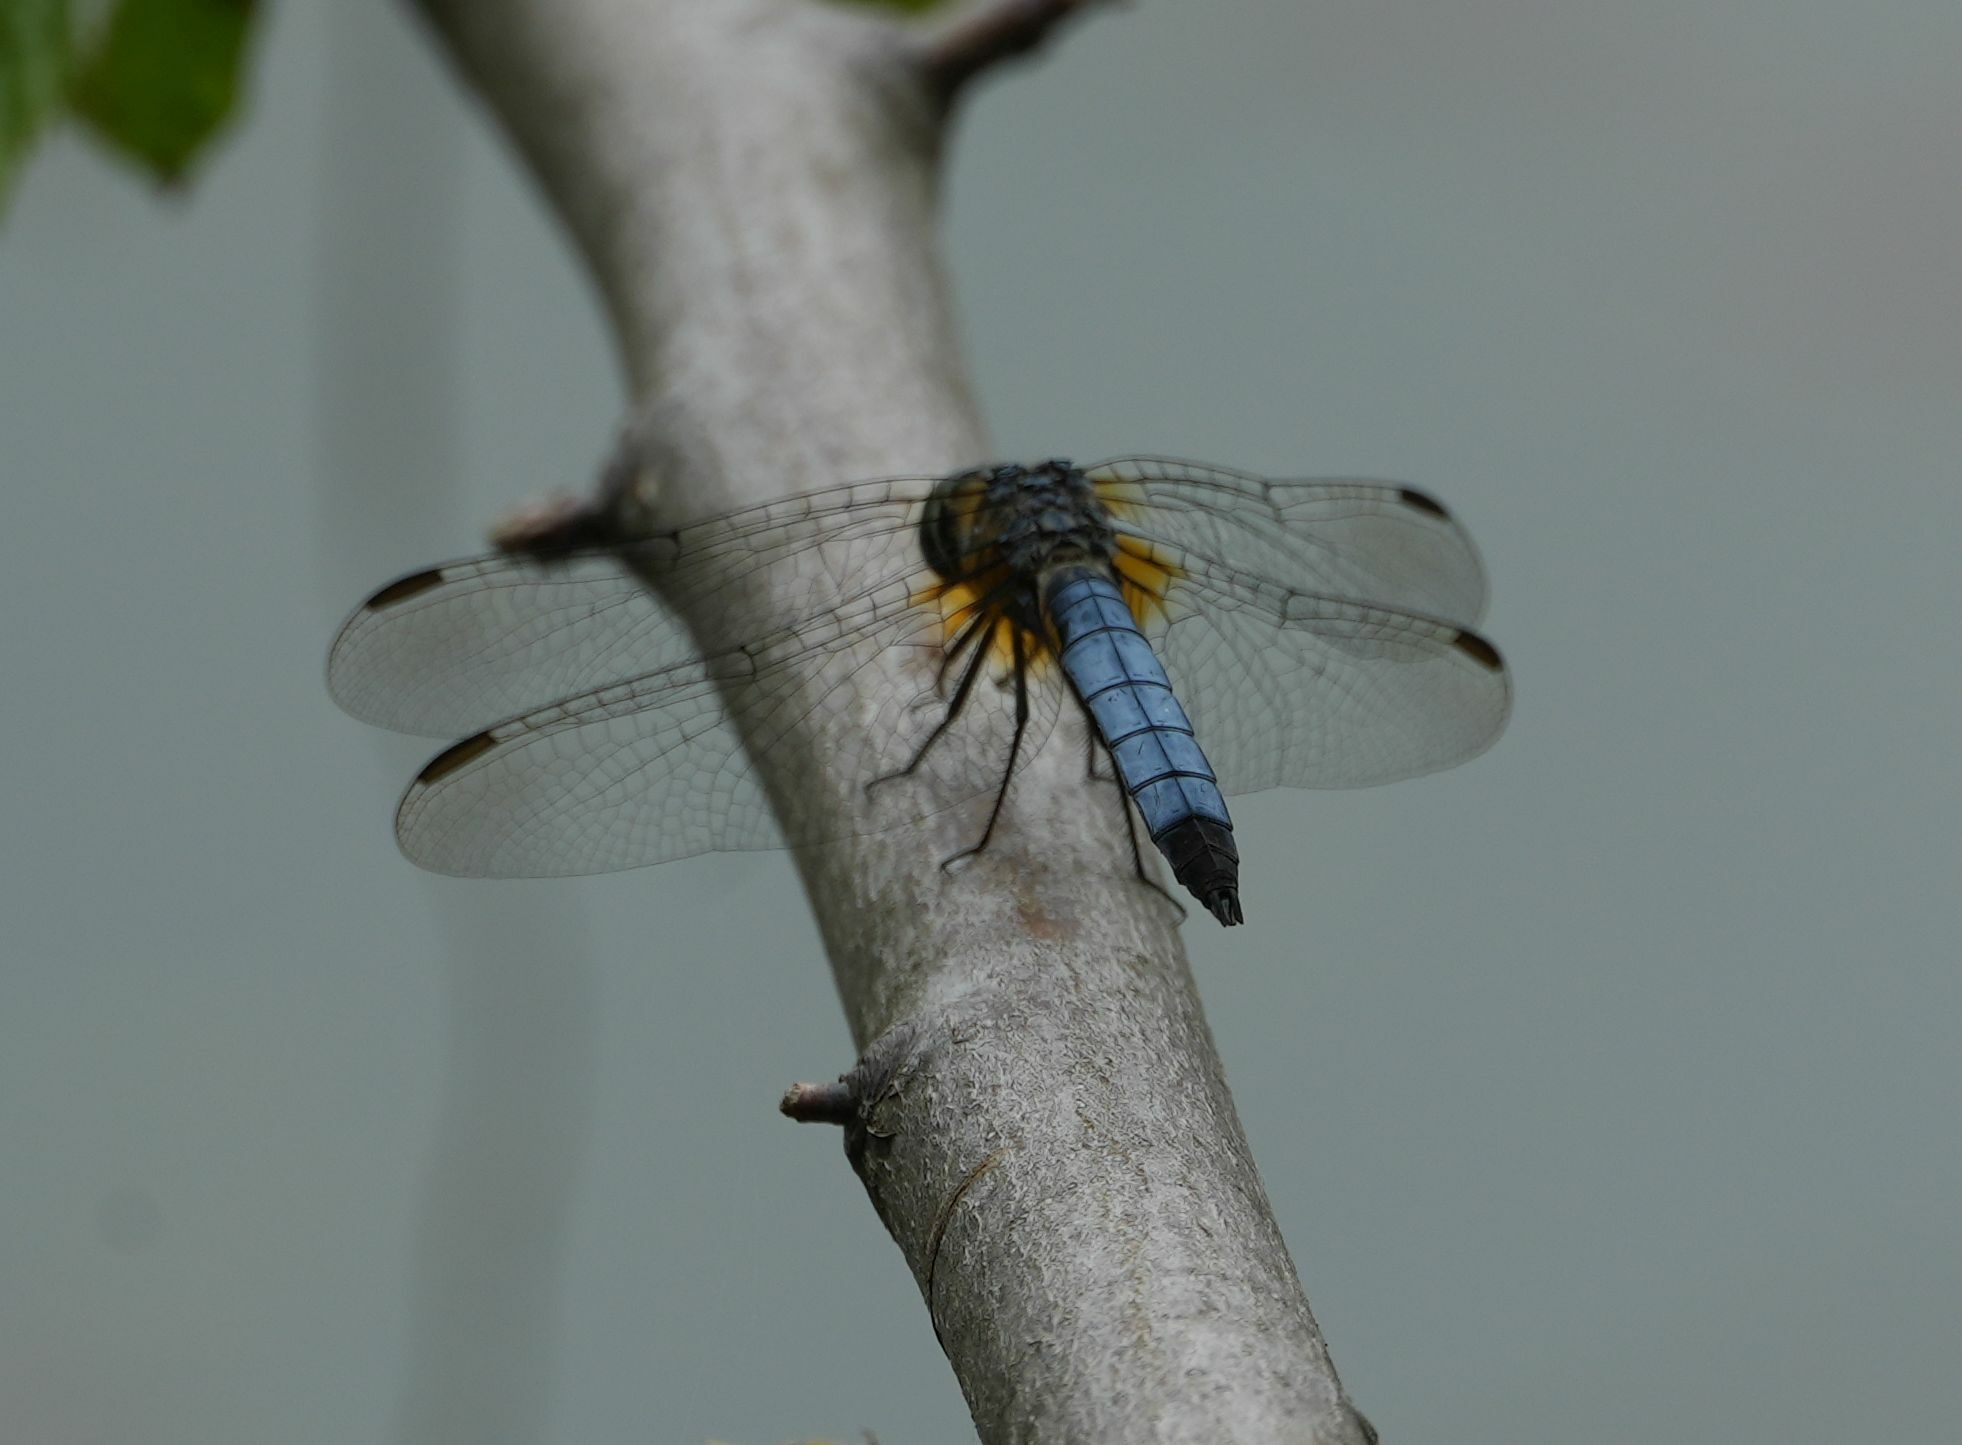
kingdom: Animalia
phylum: Arthropoda
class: Insecta
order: Odonata
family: Libellulidae
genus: Pachydiplax
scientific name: Pachydiplax longipennis
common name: Blue dasher
